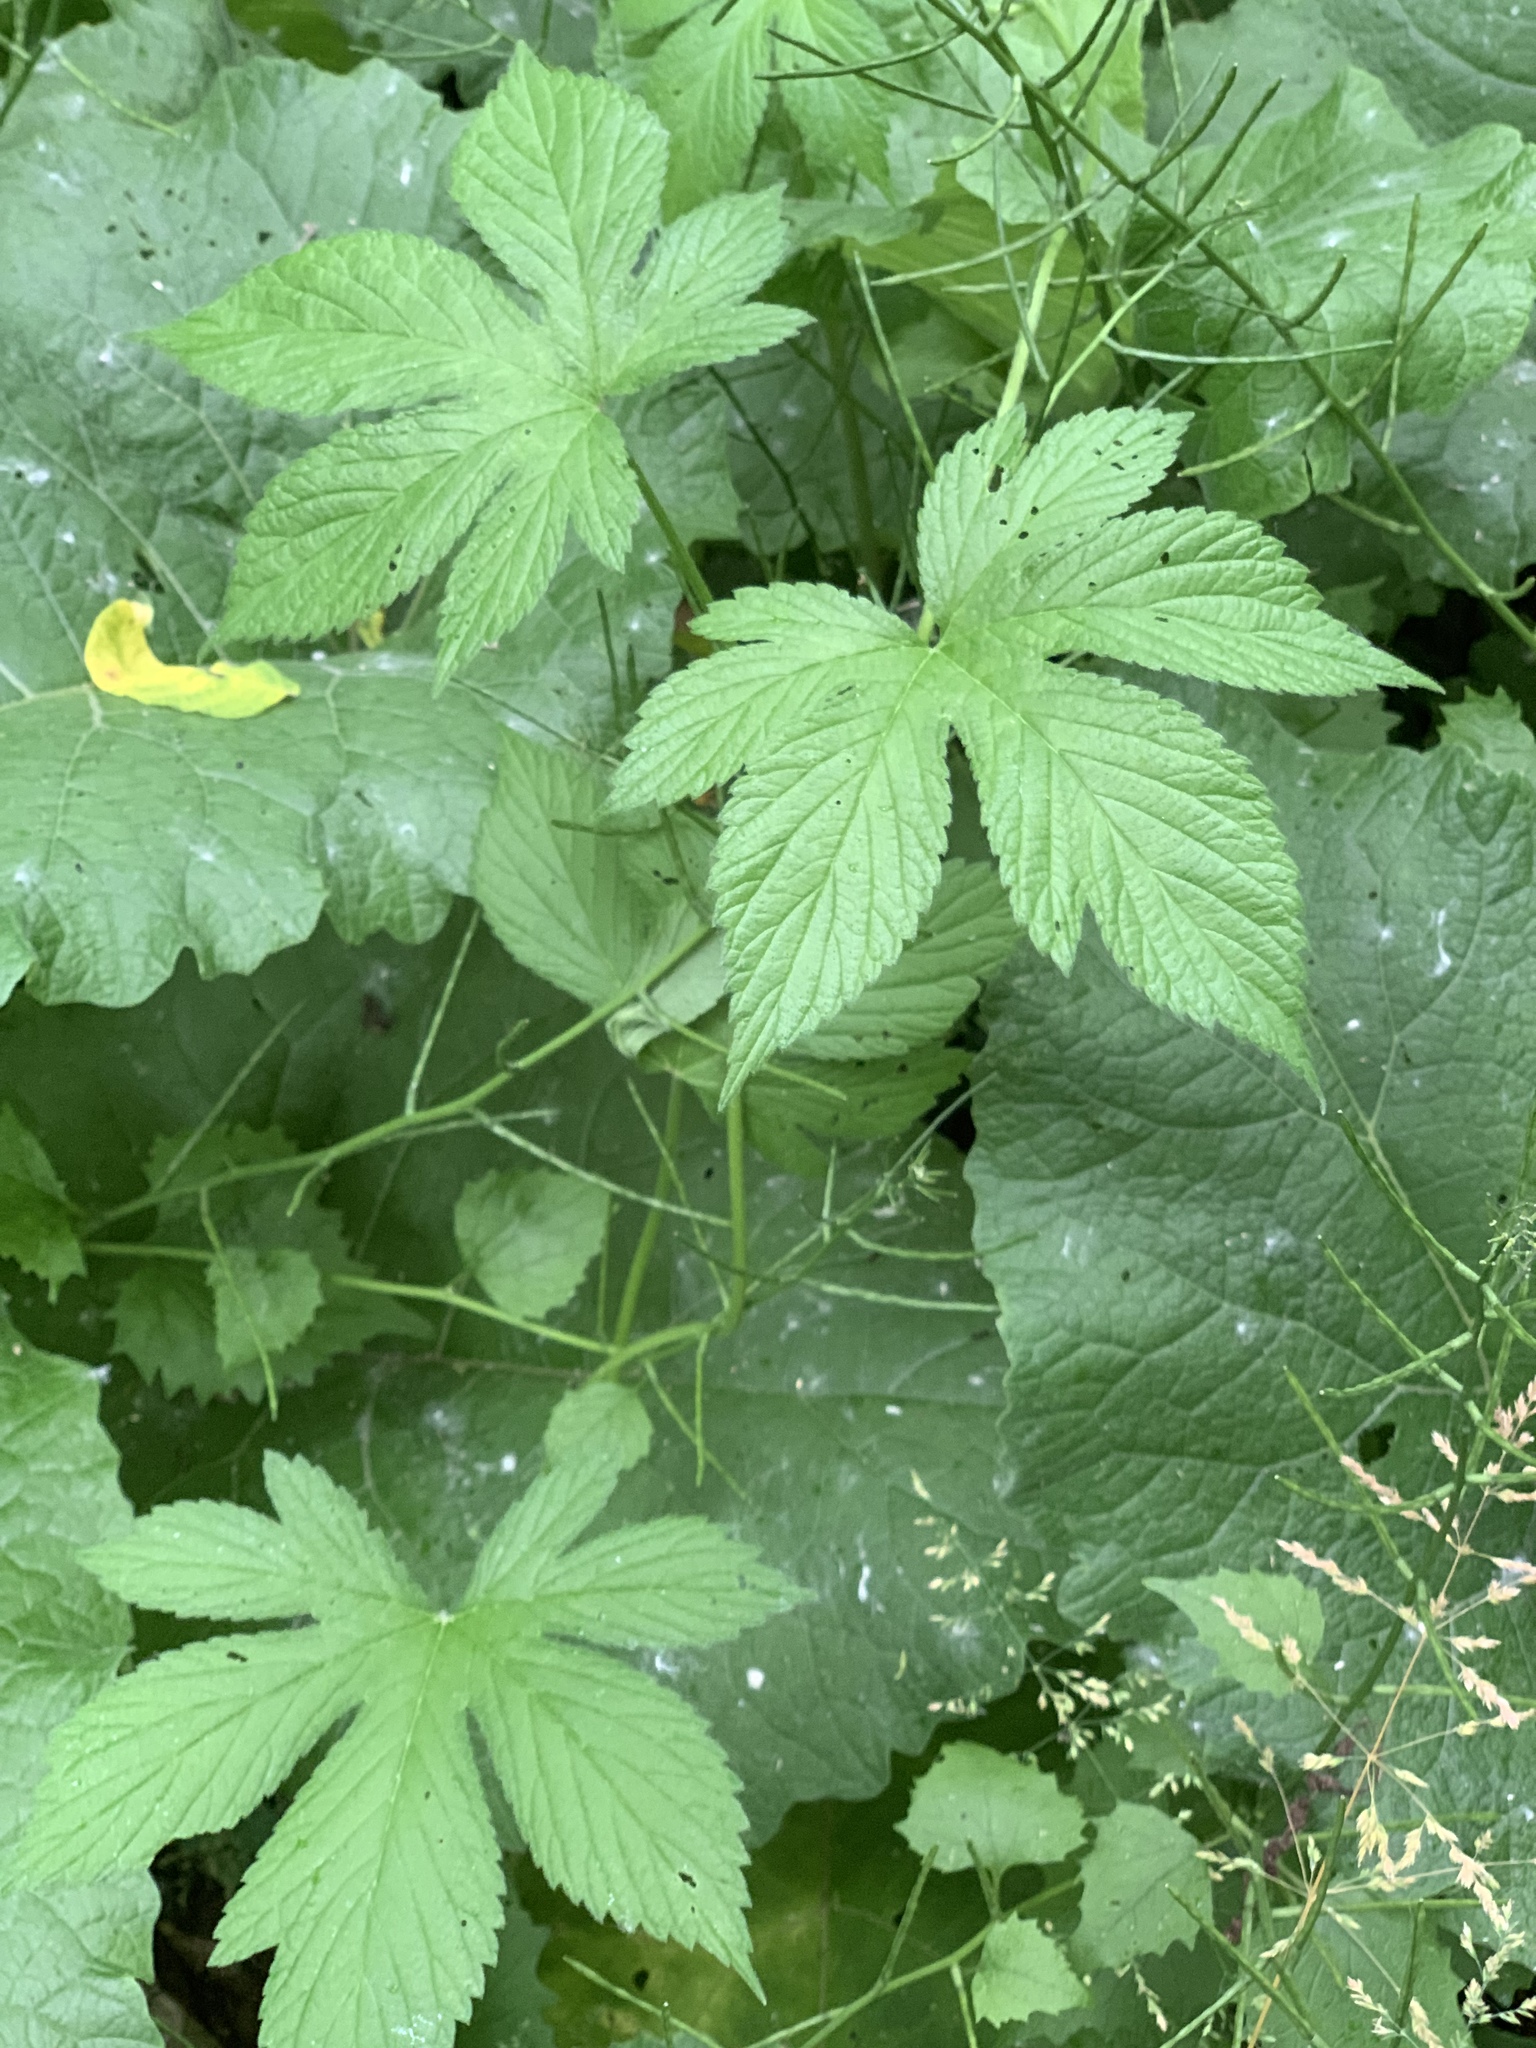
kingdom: Plantae
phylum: Tracheophyta
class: Magnoliopsida
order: Rosales
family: Cannabaceae
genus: Humulus
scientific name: Humulus scandens
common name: Japanese hop
